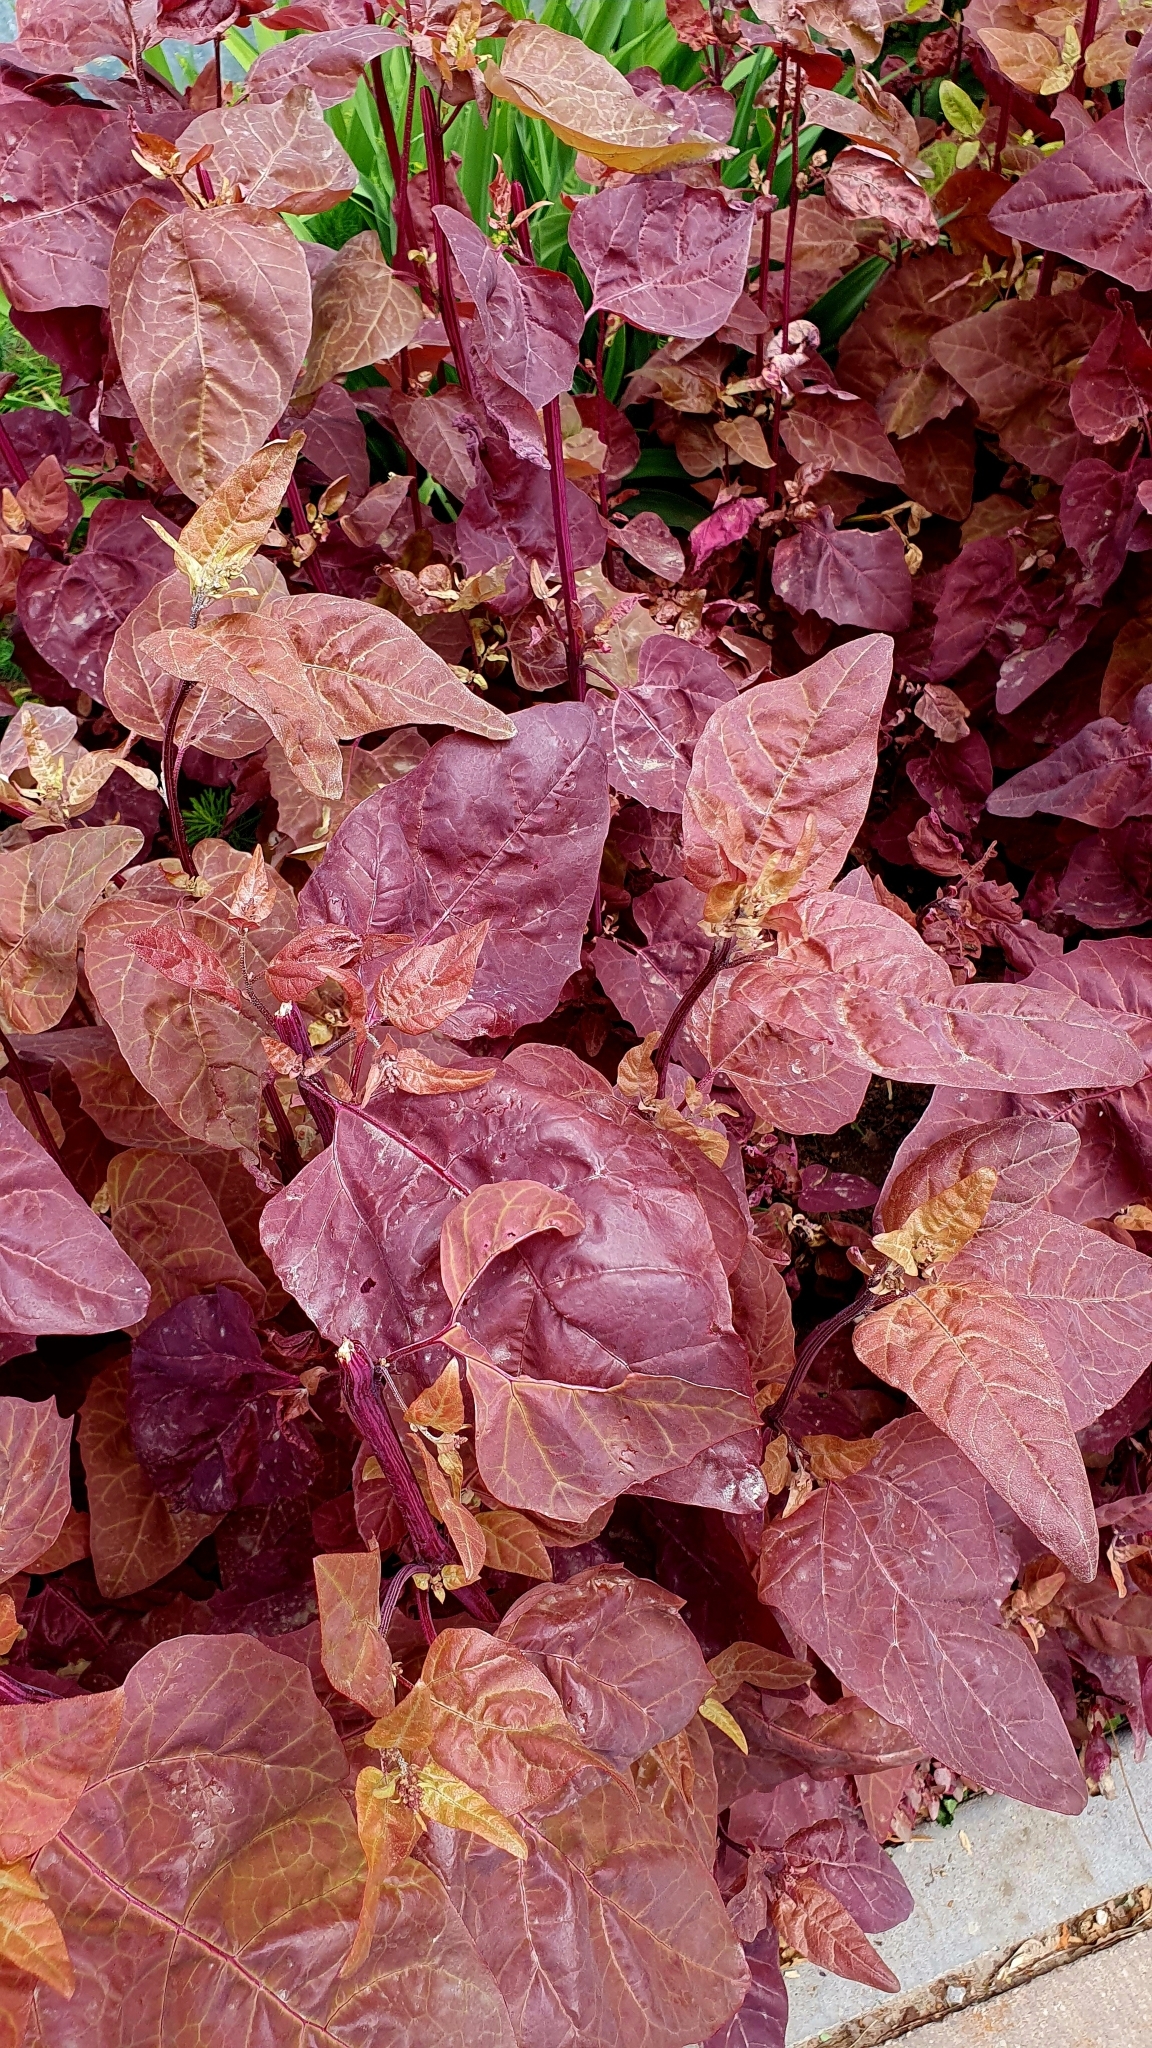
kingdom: Plantae
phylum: Tracheophyta
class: Magnoliopsida
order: Caryophyllales
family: Amaranthaceae
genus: Atriplex
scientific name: Atriplex hortensis
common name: Garden orache
